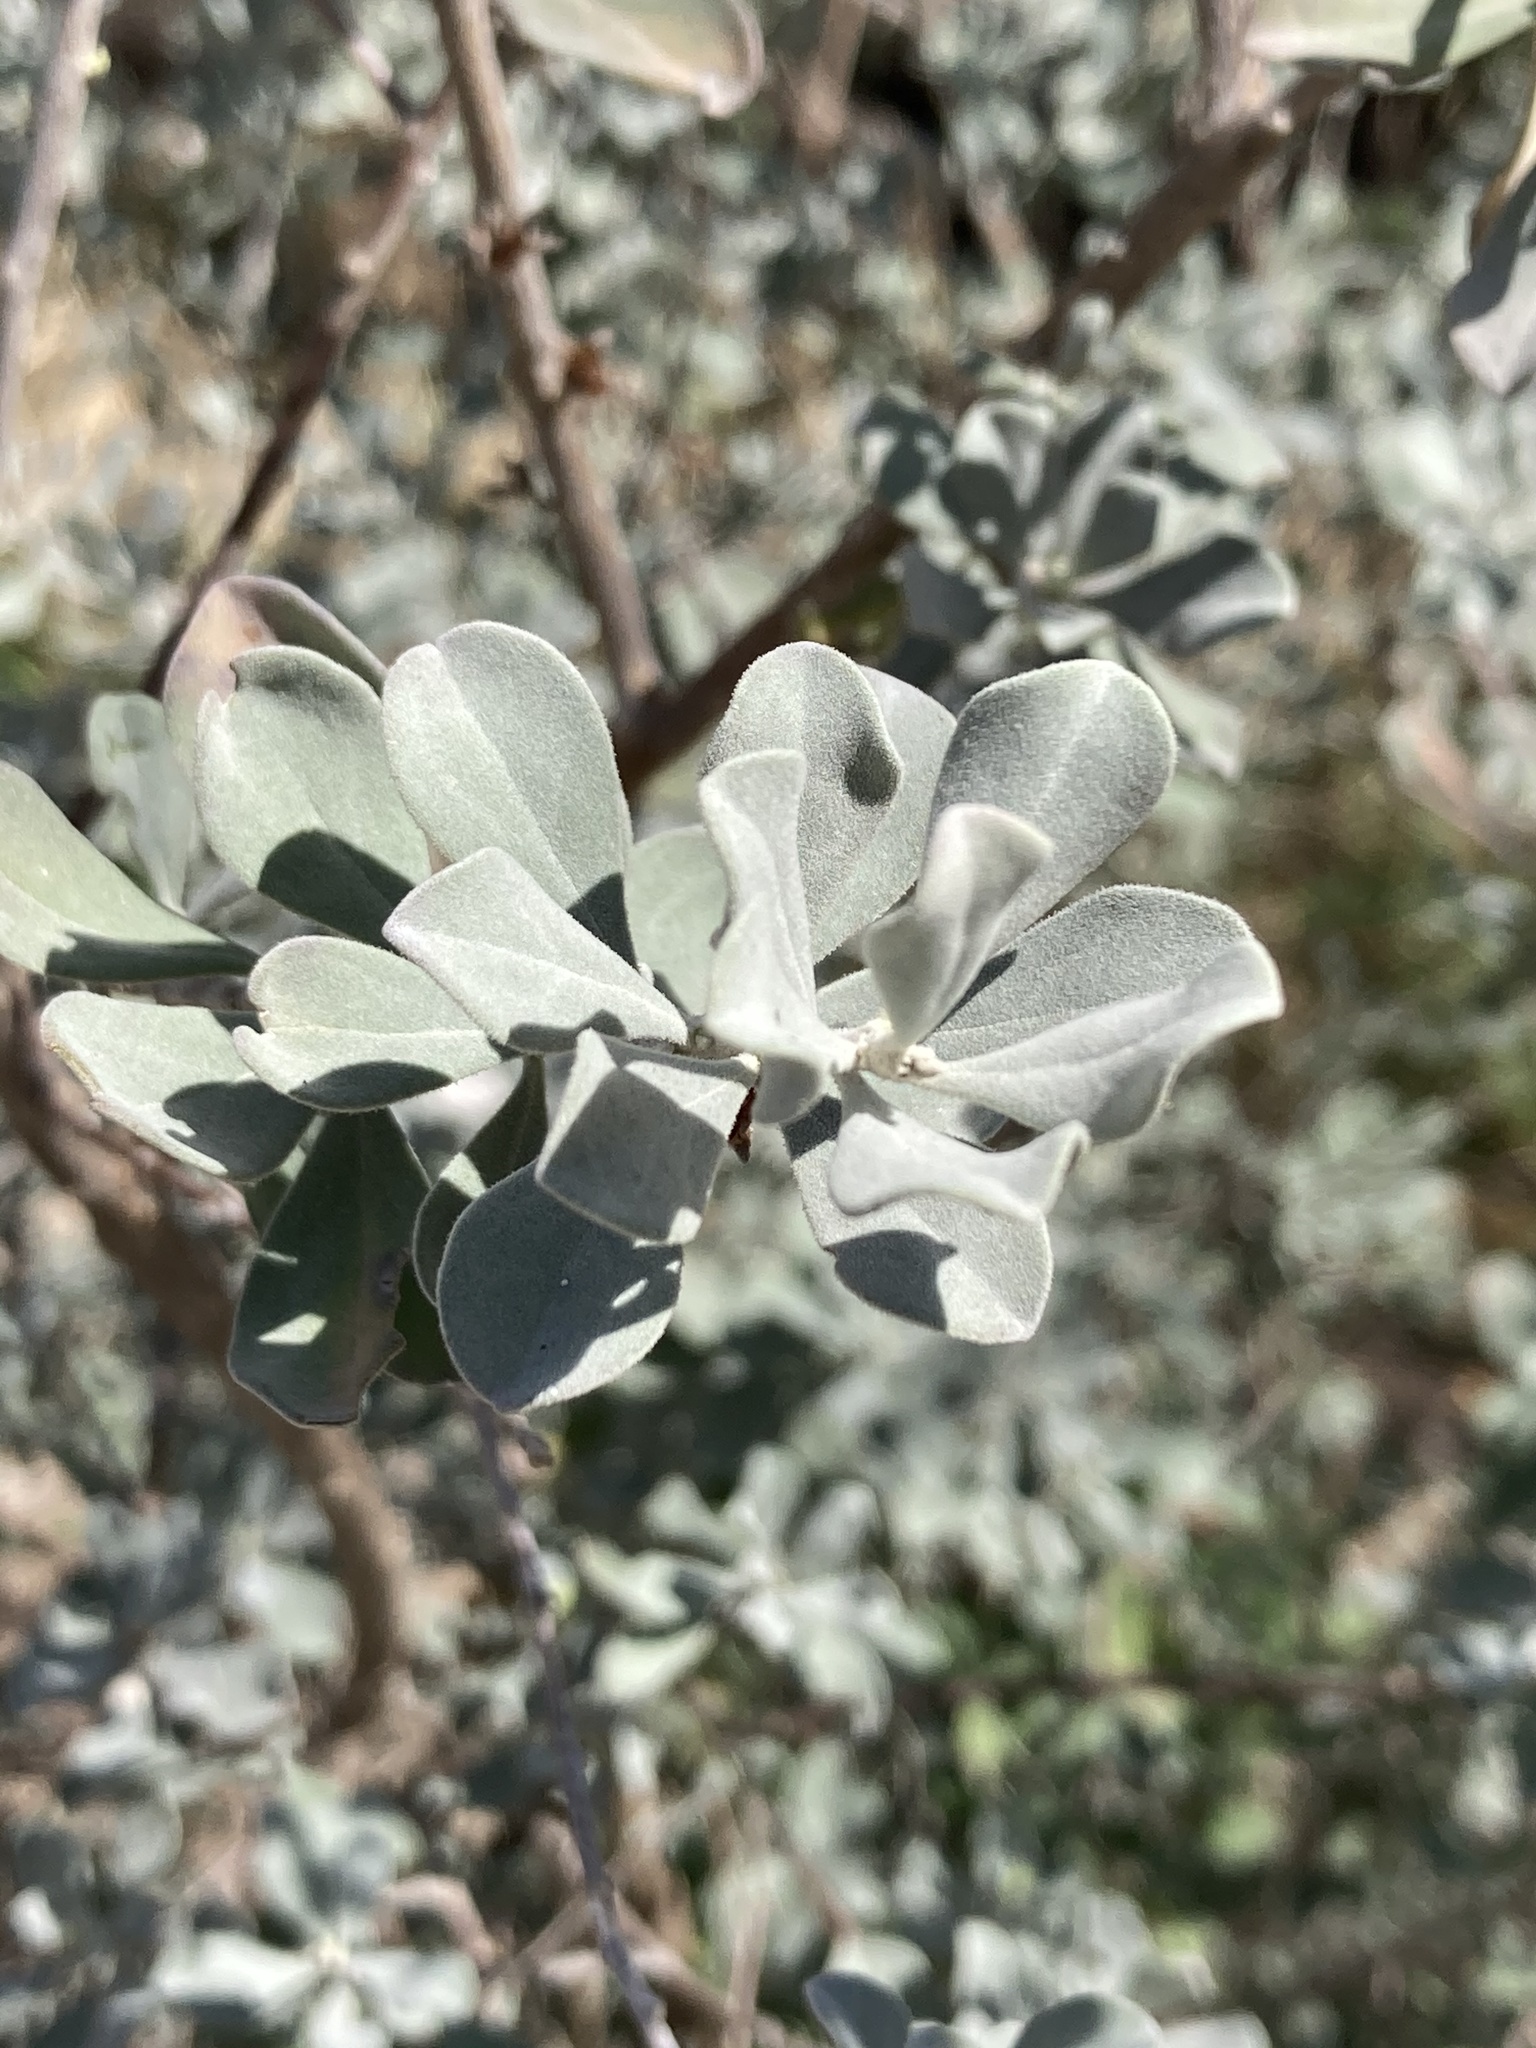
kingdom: Plantae
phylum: Tracheophyta
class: Magnoliopsida
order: Lamiales
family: Scrophulariaceae
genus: Leucophyllum
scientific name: Leucophyllum frutescens
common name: Texas silverleaf
